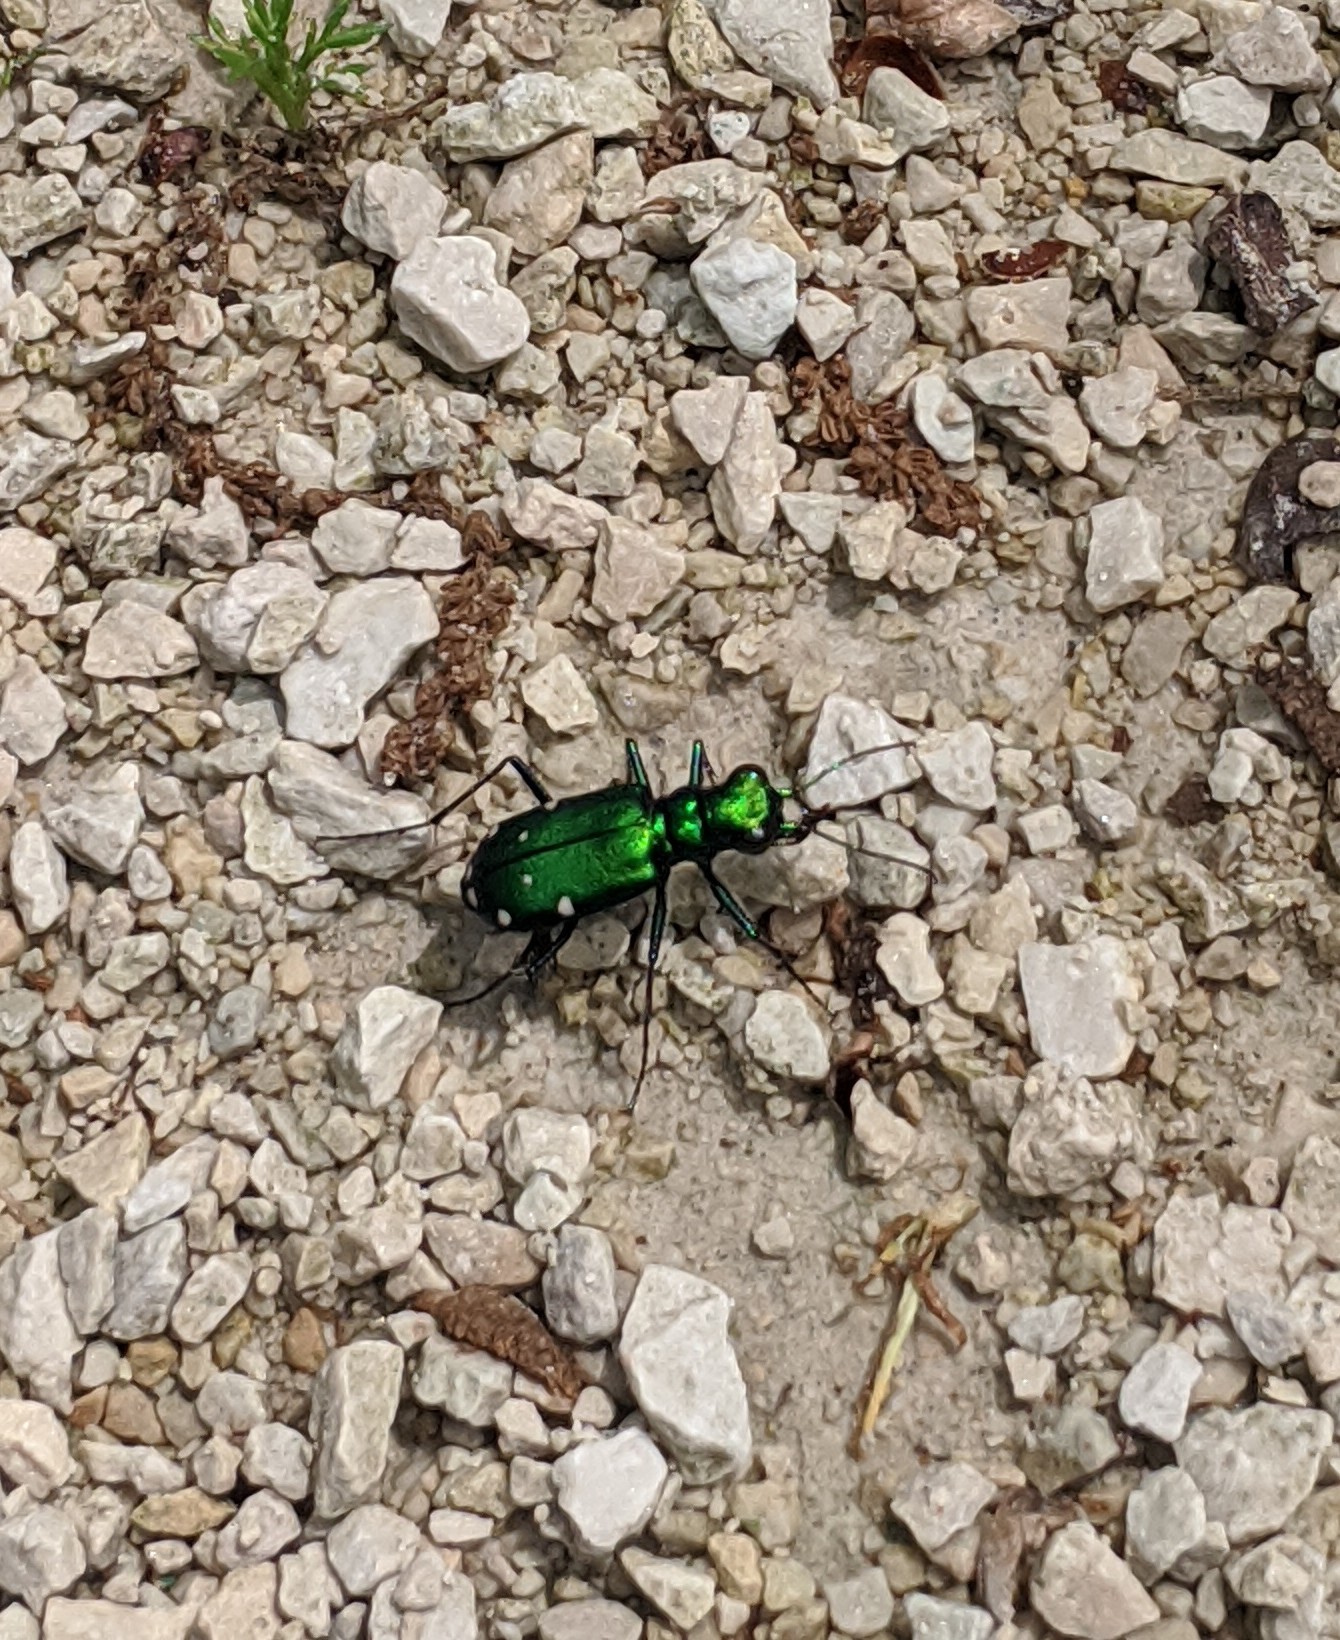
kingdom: Animalia
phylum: Arthropoda
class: Insecta
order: Coleoptera
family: Carabidae
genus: Cicindela
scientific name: Cicindela sexguttata
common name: Six-spotted tiger beetle
